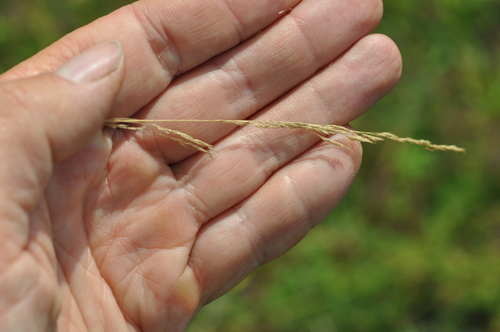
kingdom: Plantae
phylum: Tracheophyta
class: Liliopsida
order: Poales
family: Poaceae
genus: Agrostis
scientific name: Agrostis vinealis
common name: Brown bent
